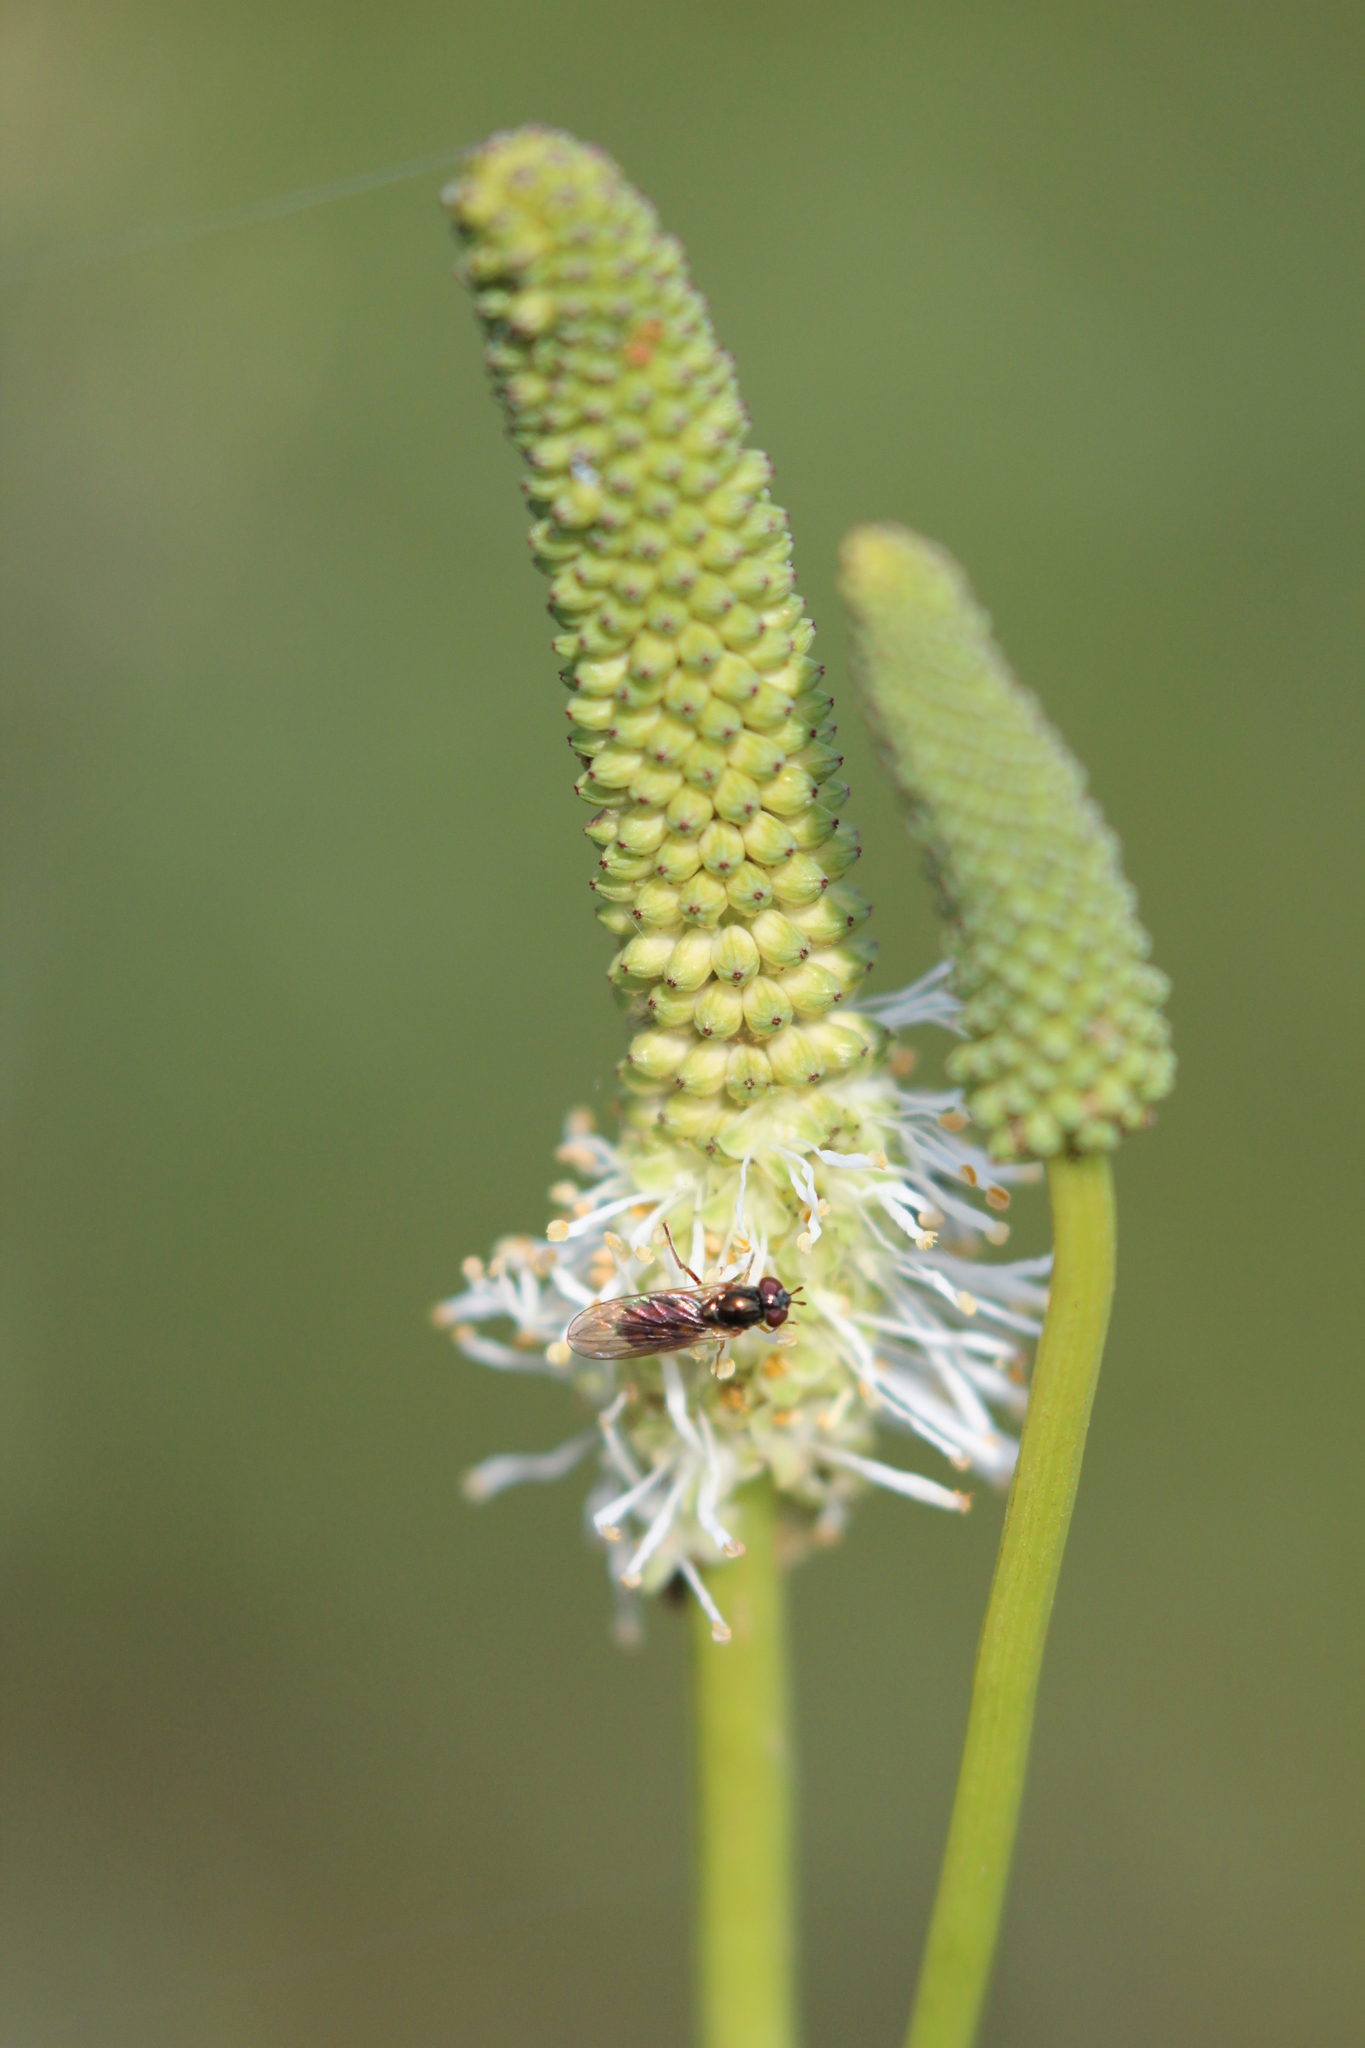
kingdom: Plantae
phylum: Tracheophyta
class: Magnoliopsida
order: Rosales
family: Rosaceae
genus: Sanguisorba
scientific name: Sanguisorba canadensis
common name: White burnet
